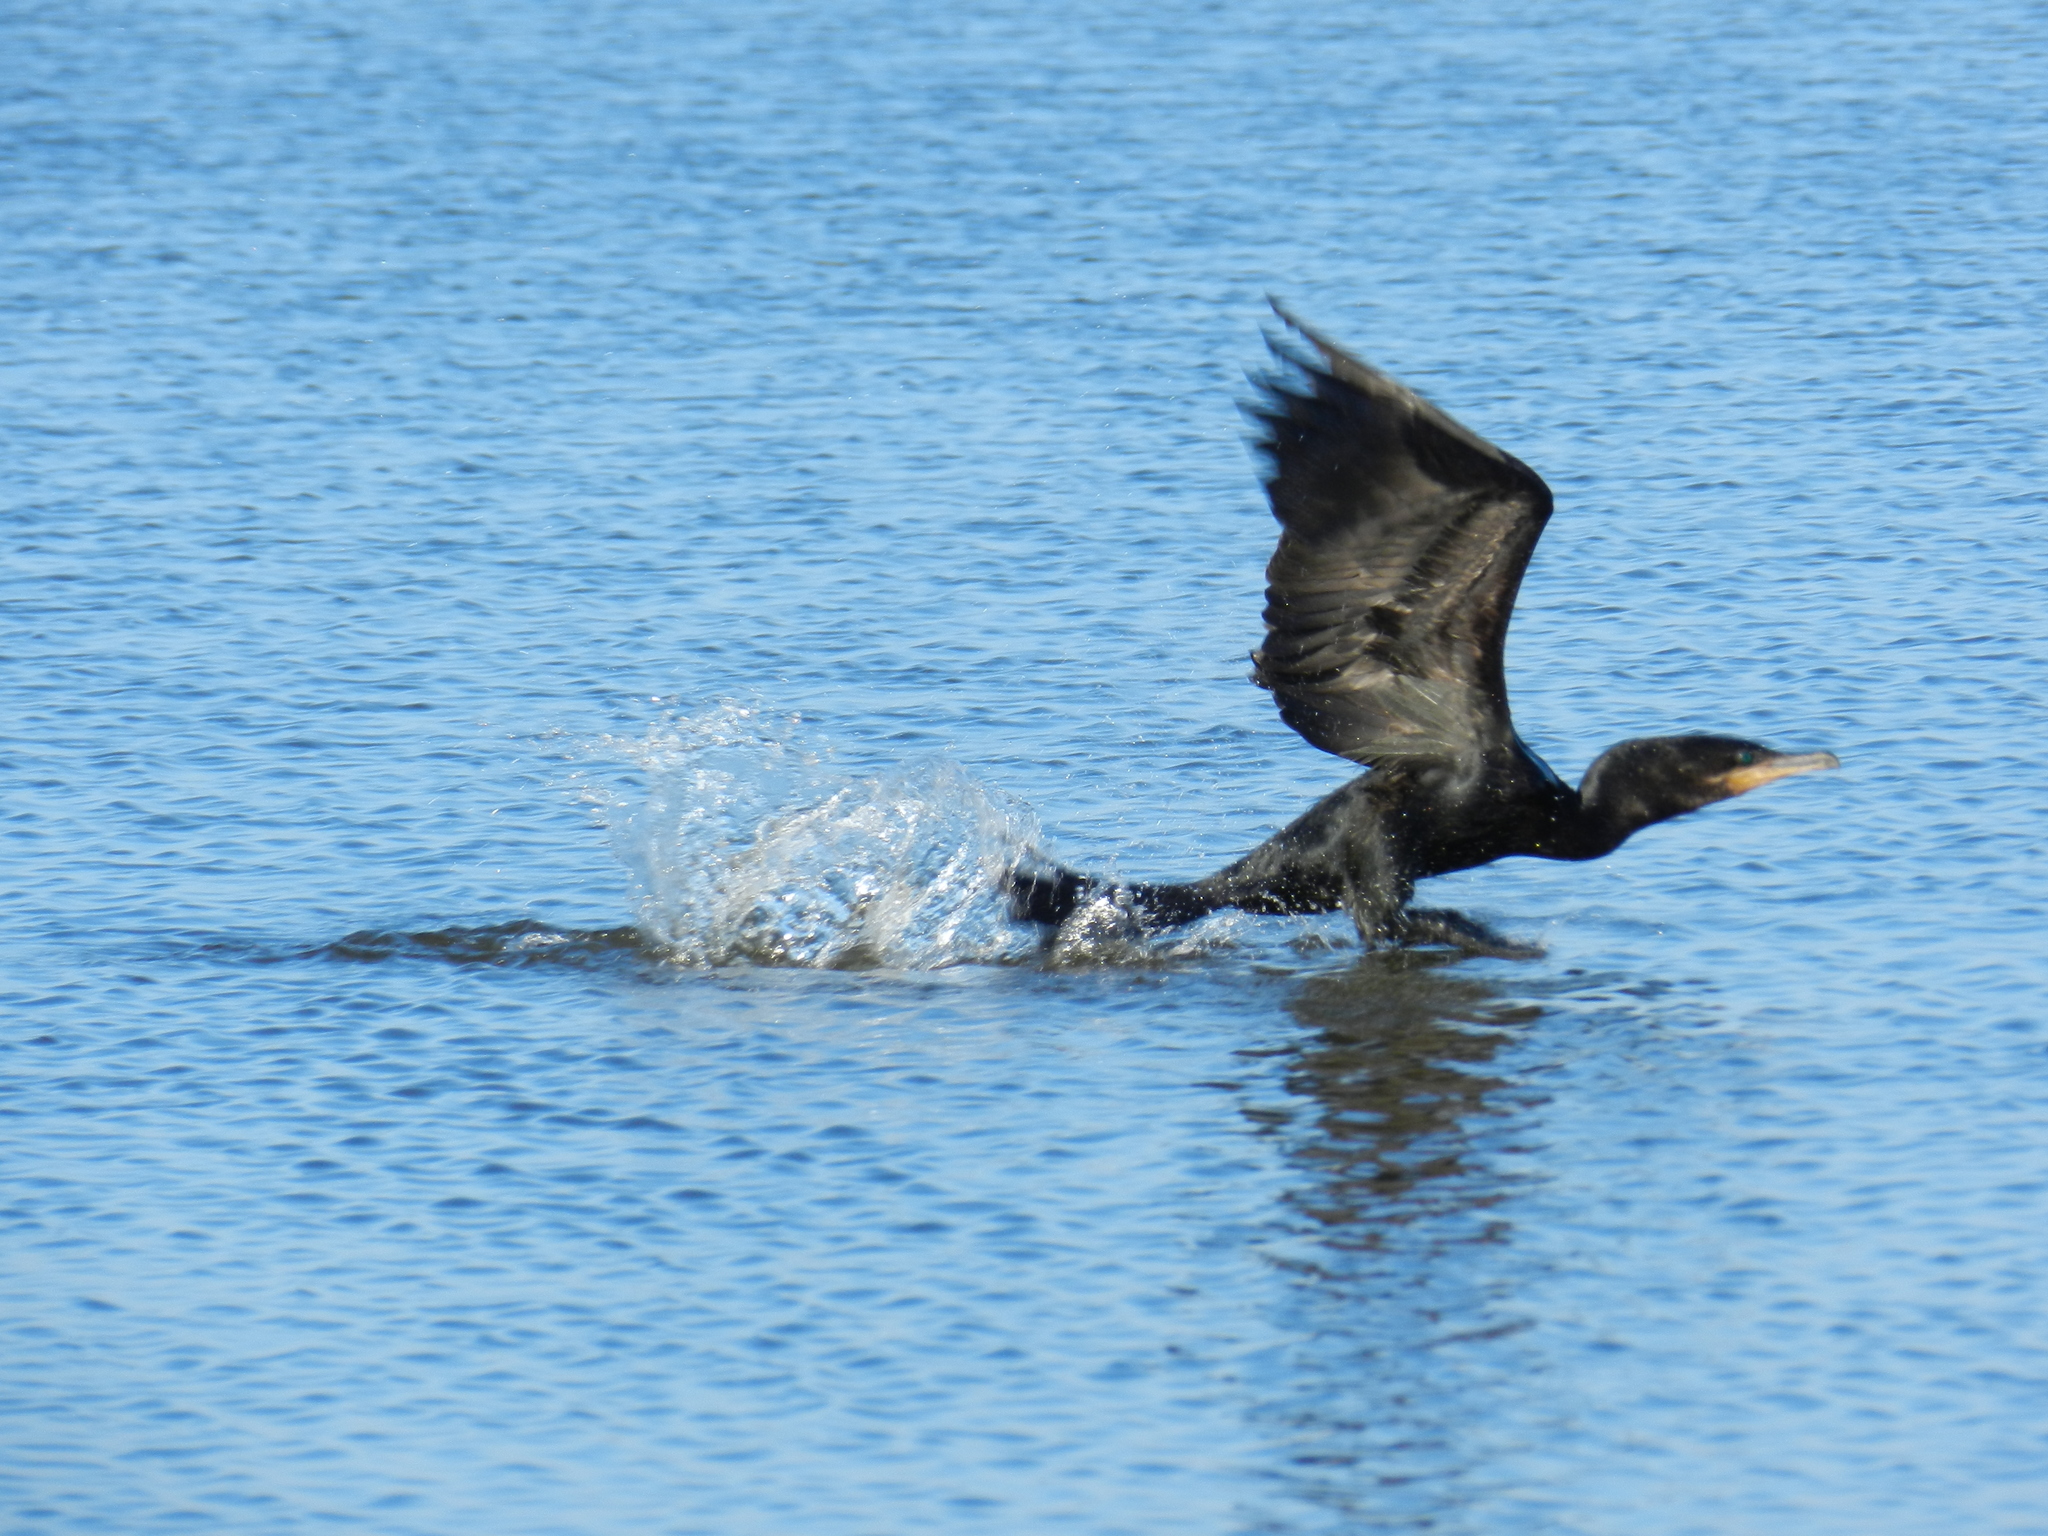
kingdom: Animalia
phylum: Chordata
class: Aves
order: Suliformes
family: Phalacrocoracidae
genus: Phalacrocorax
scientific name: Phalacrocorax brasilianus
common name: Neotropic cormorant
